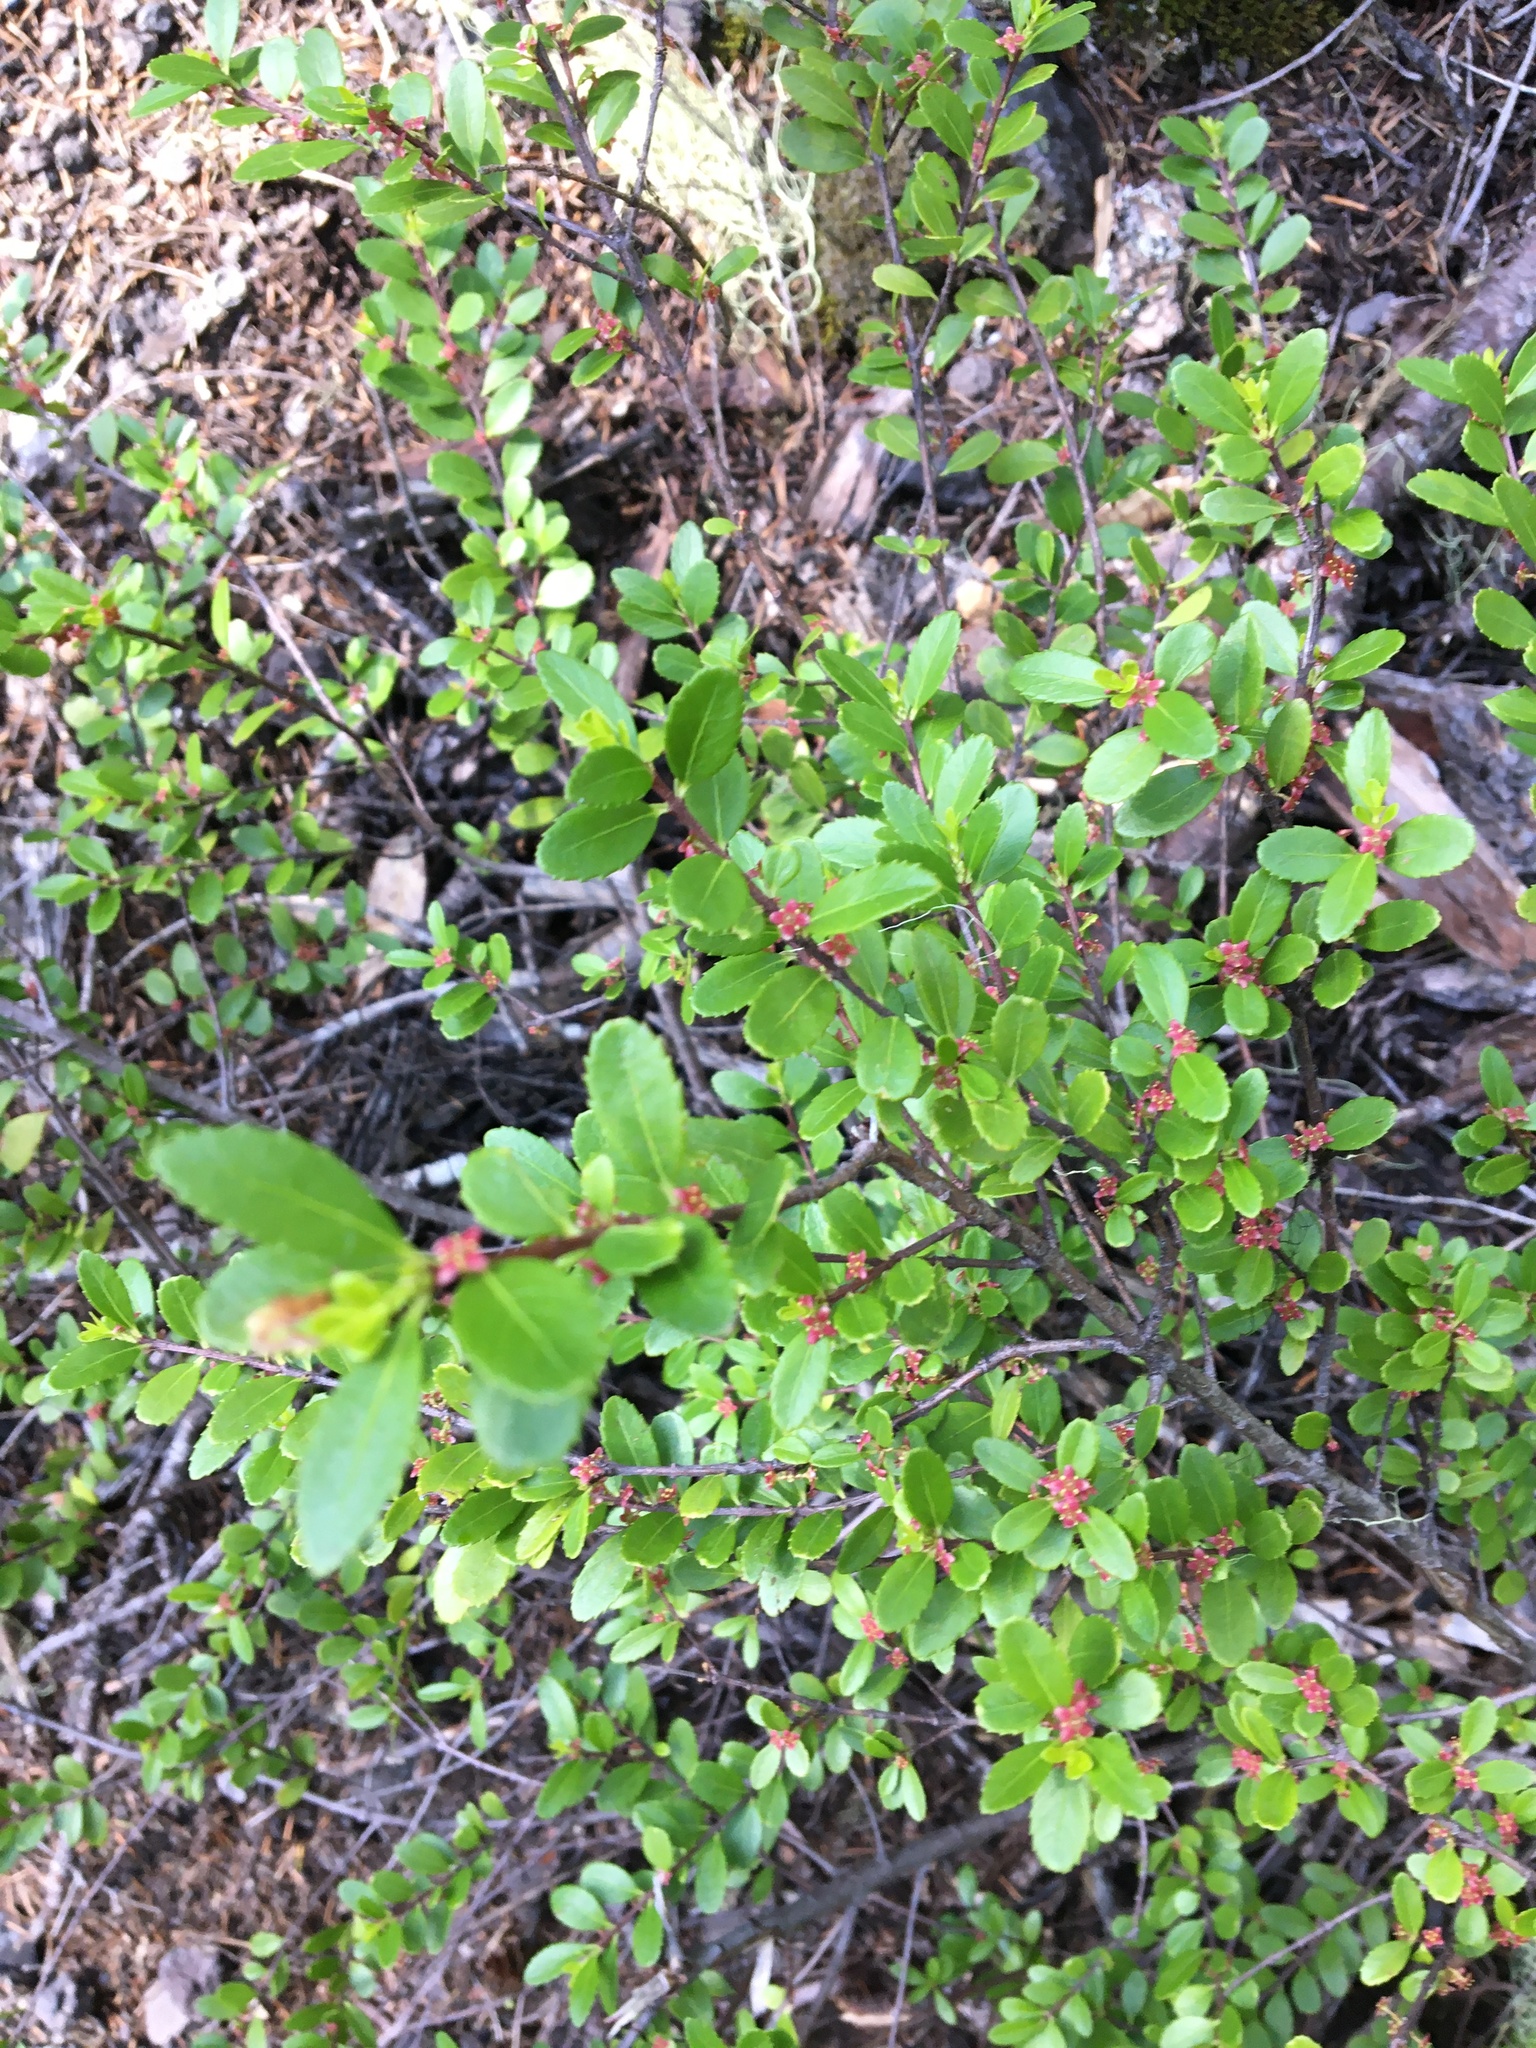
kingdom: Plantae
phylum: Tracheophyta
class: Magnoliopsida
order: Celastrales
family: Celastraceae
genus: Paxistima
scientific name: Paxistima myrsinites
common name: Mountain-lover
